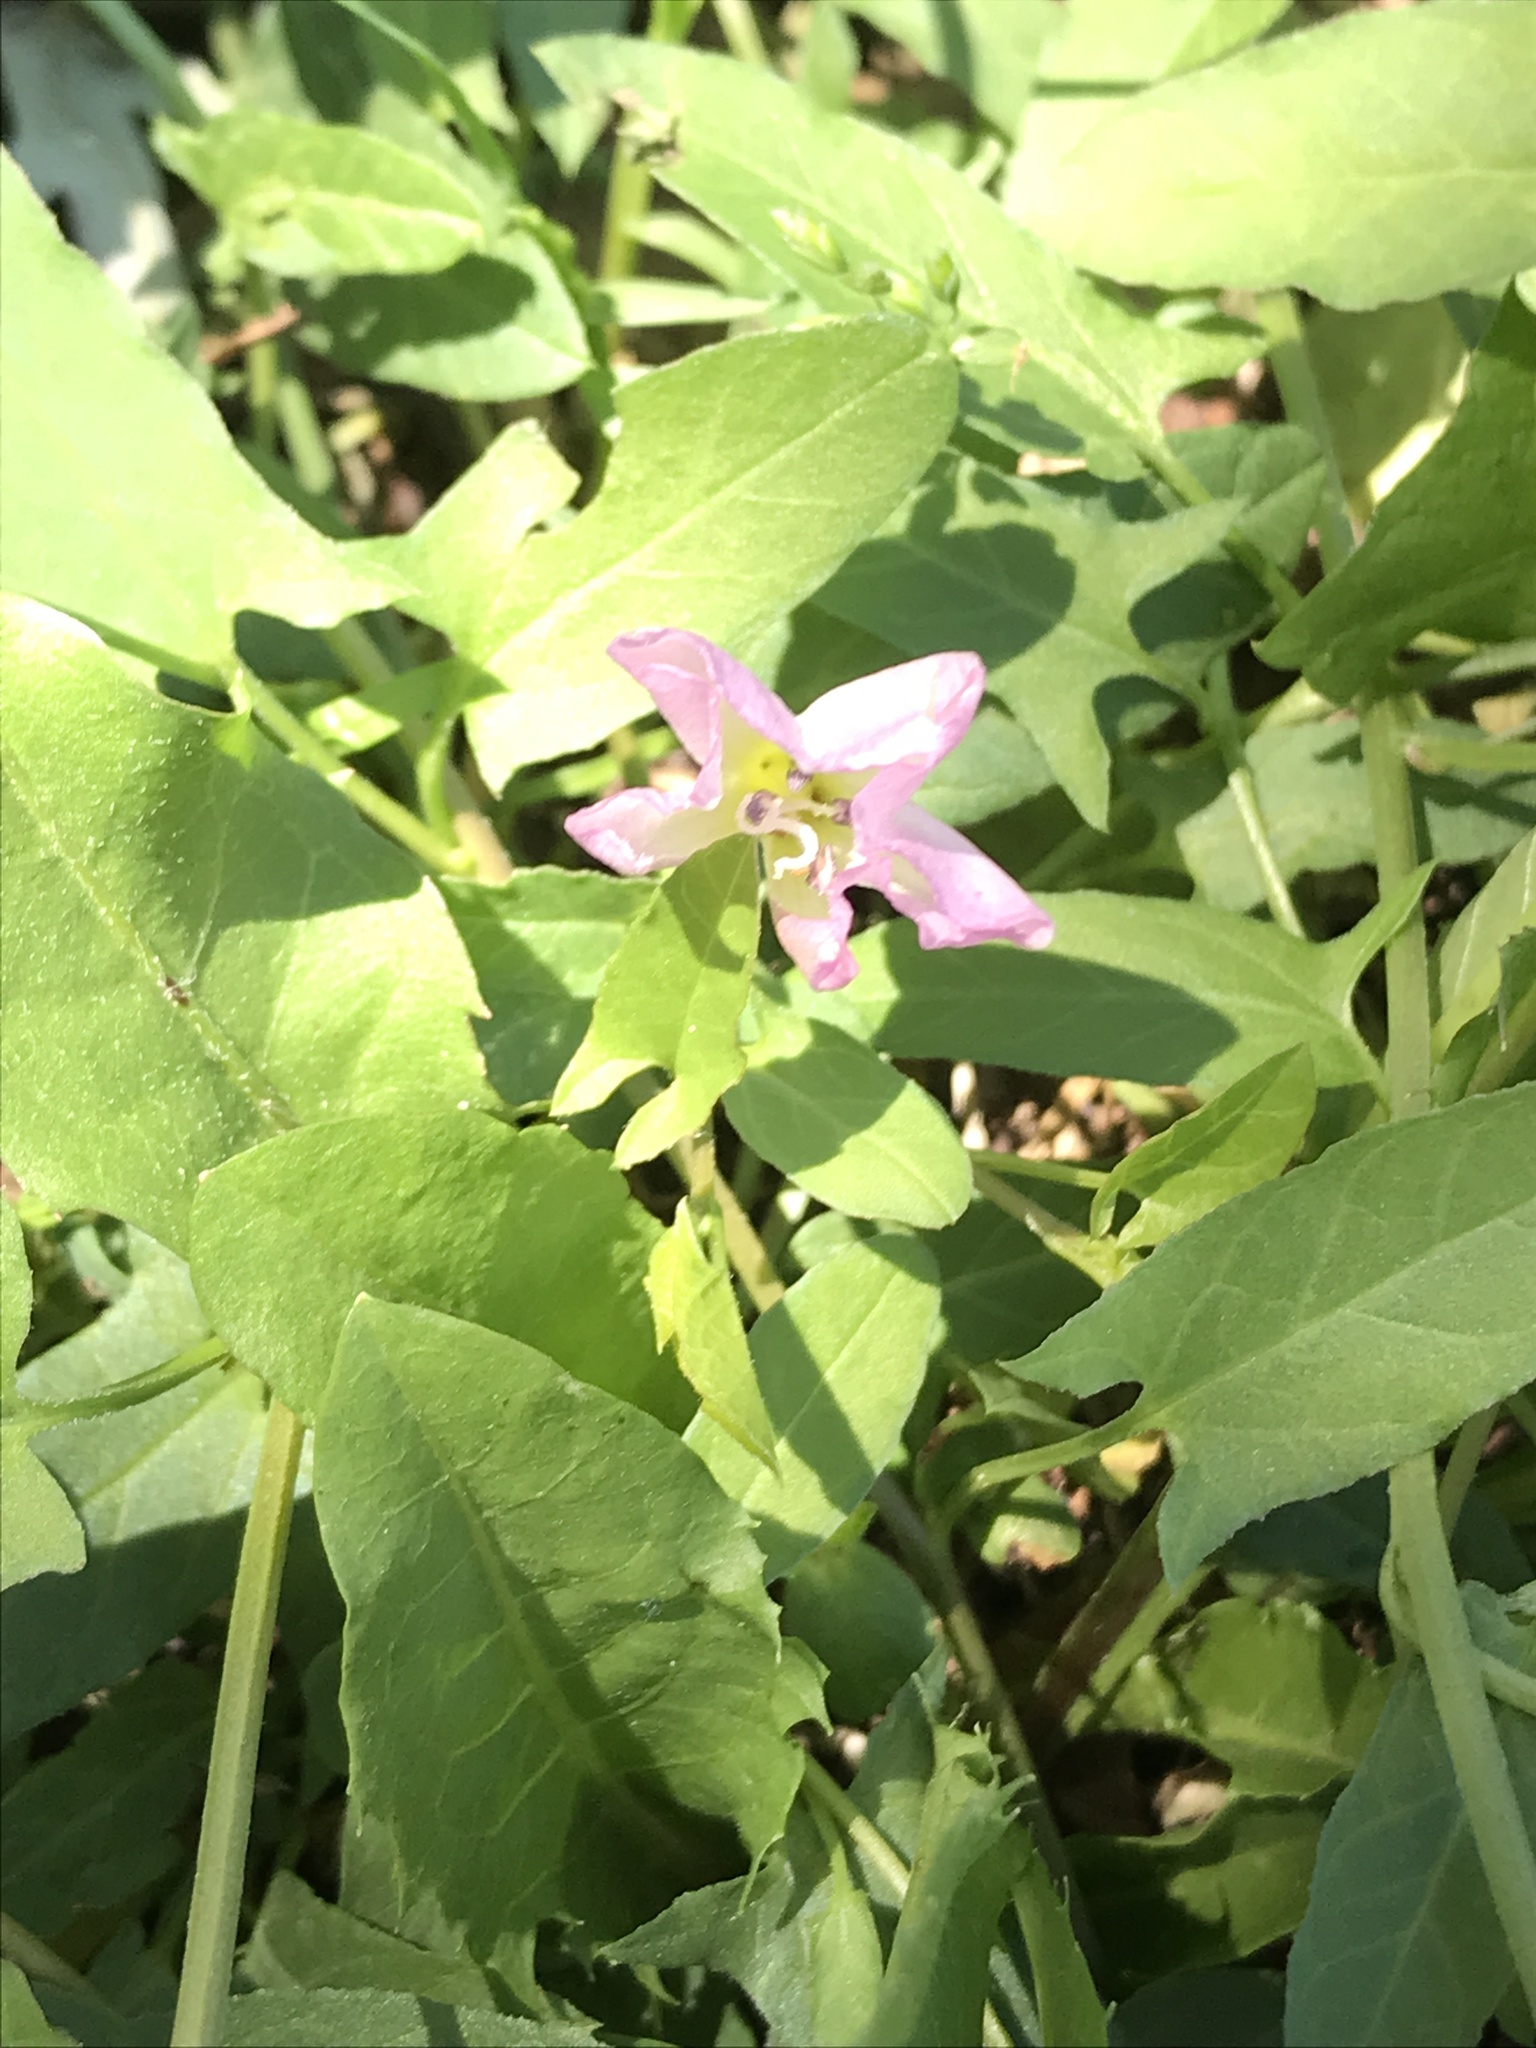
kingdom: Plantae
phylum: Tracheophyta
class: Magnoliopsida
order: Solanales
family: Convolvulaceae
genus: Convolvulus
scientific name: Convolvulus arvensis
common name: Field bindweed
